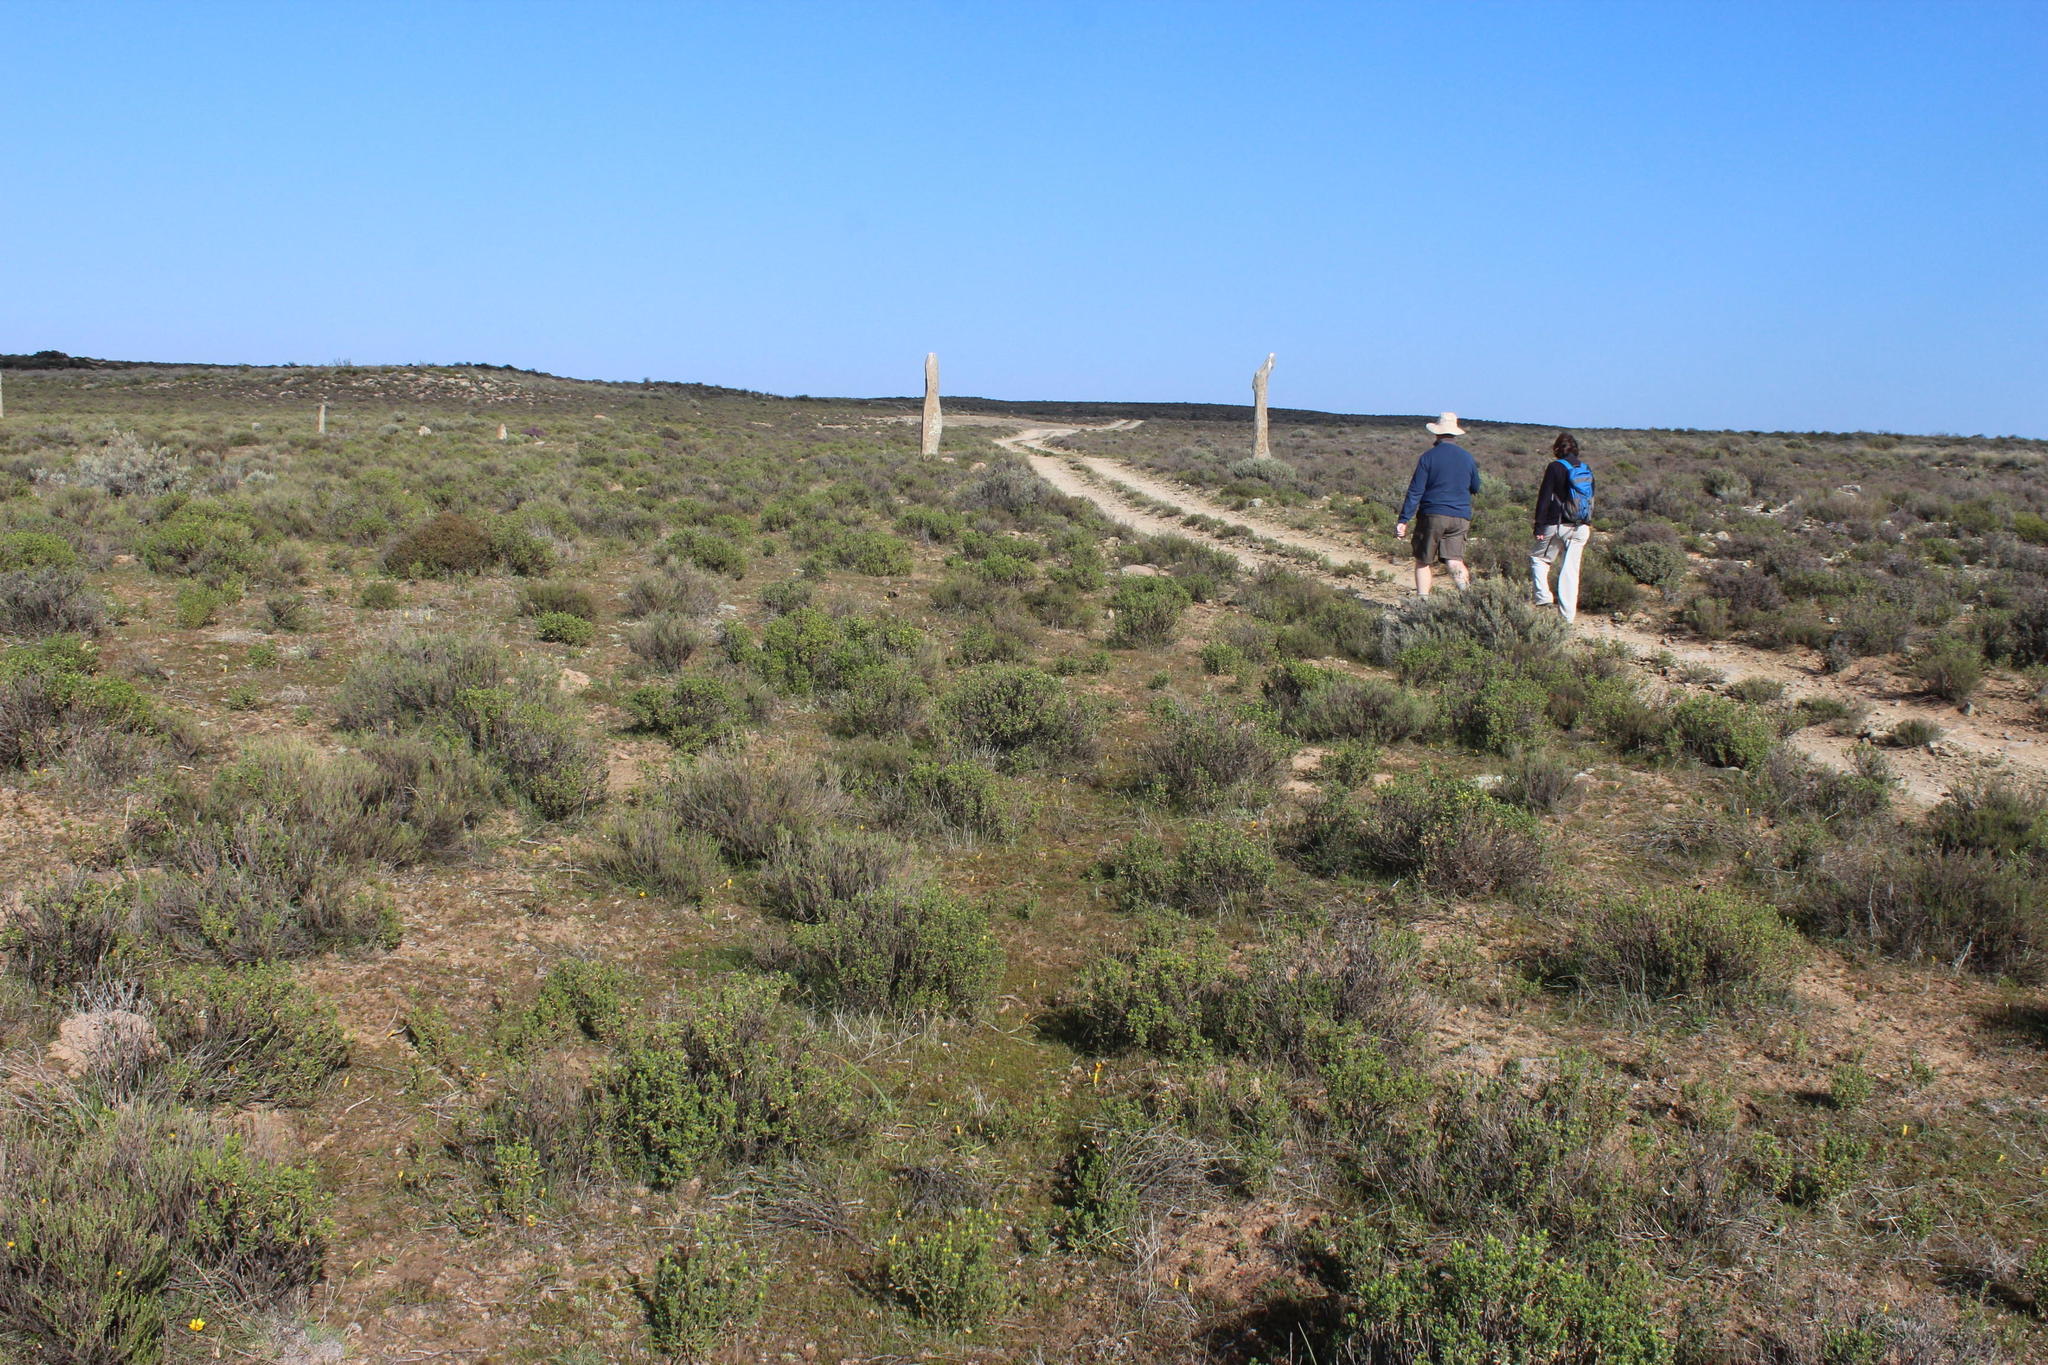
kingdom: Plantae
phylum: Tracheophyta
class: Magnoliopsida
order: Asterales
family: Asteraceae
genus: Dimorphotheca
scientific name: Dimorphotheca cuneata
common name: Daisy
